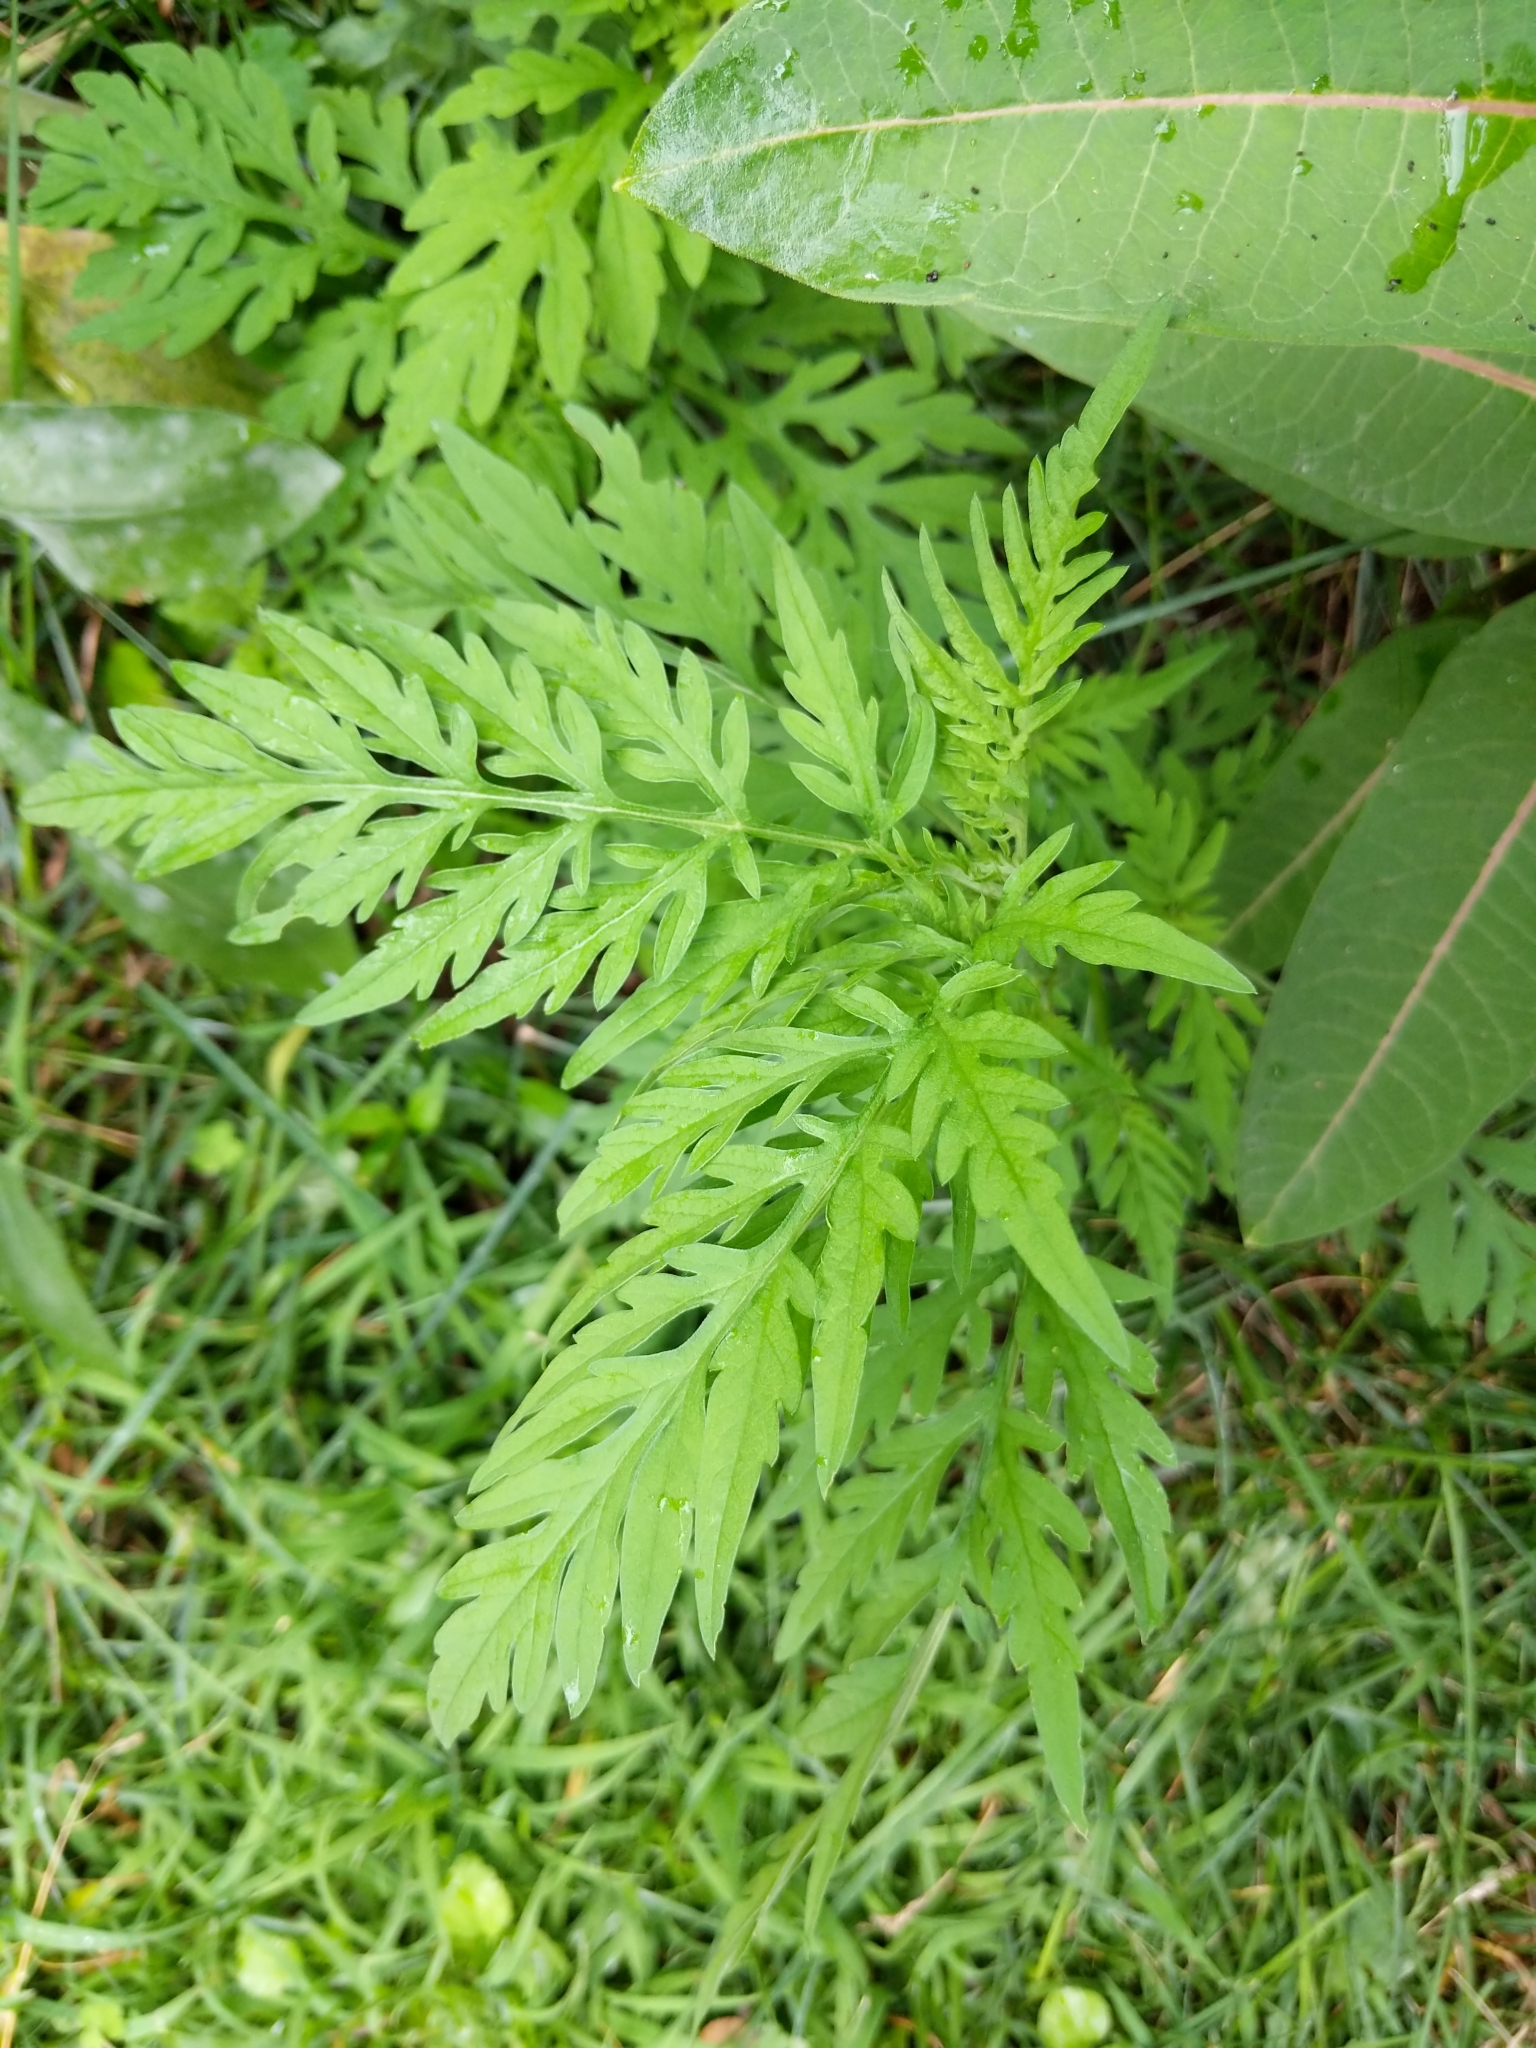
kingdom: Plantae
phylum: Tracheophyta
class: Magnoliopsida
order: Asterales
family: Asteraceae
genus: Ambrosia
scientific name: Ambrosia artemisiifolia
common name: Annual ragweed
